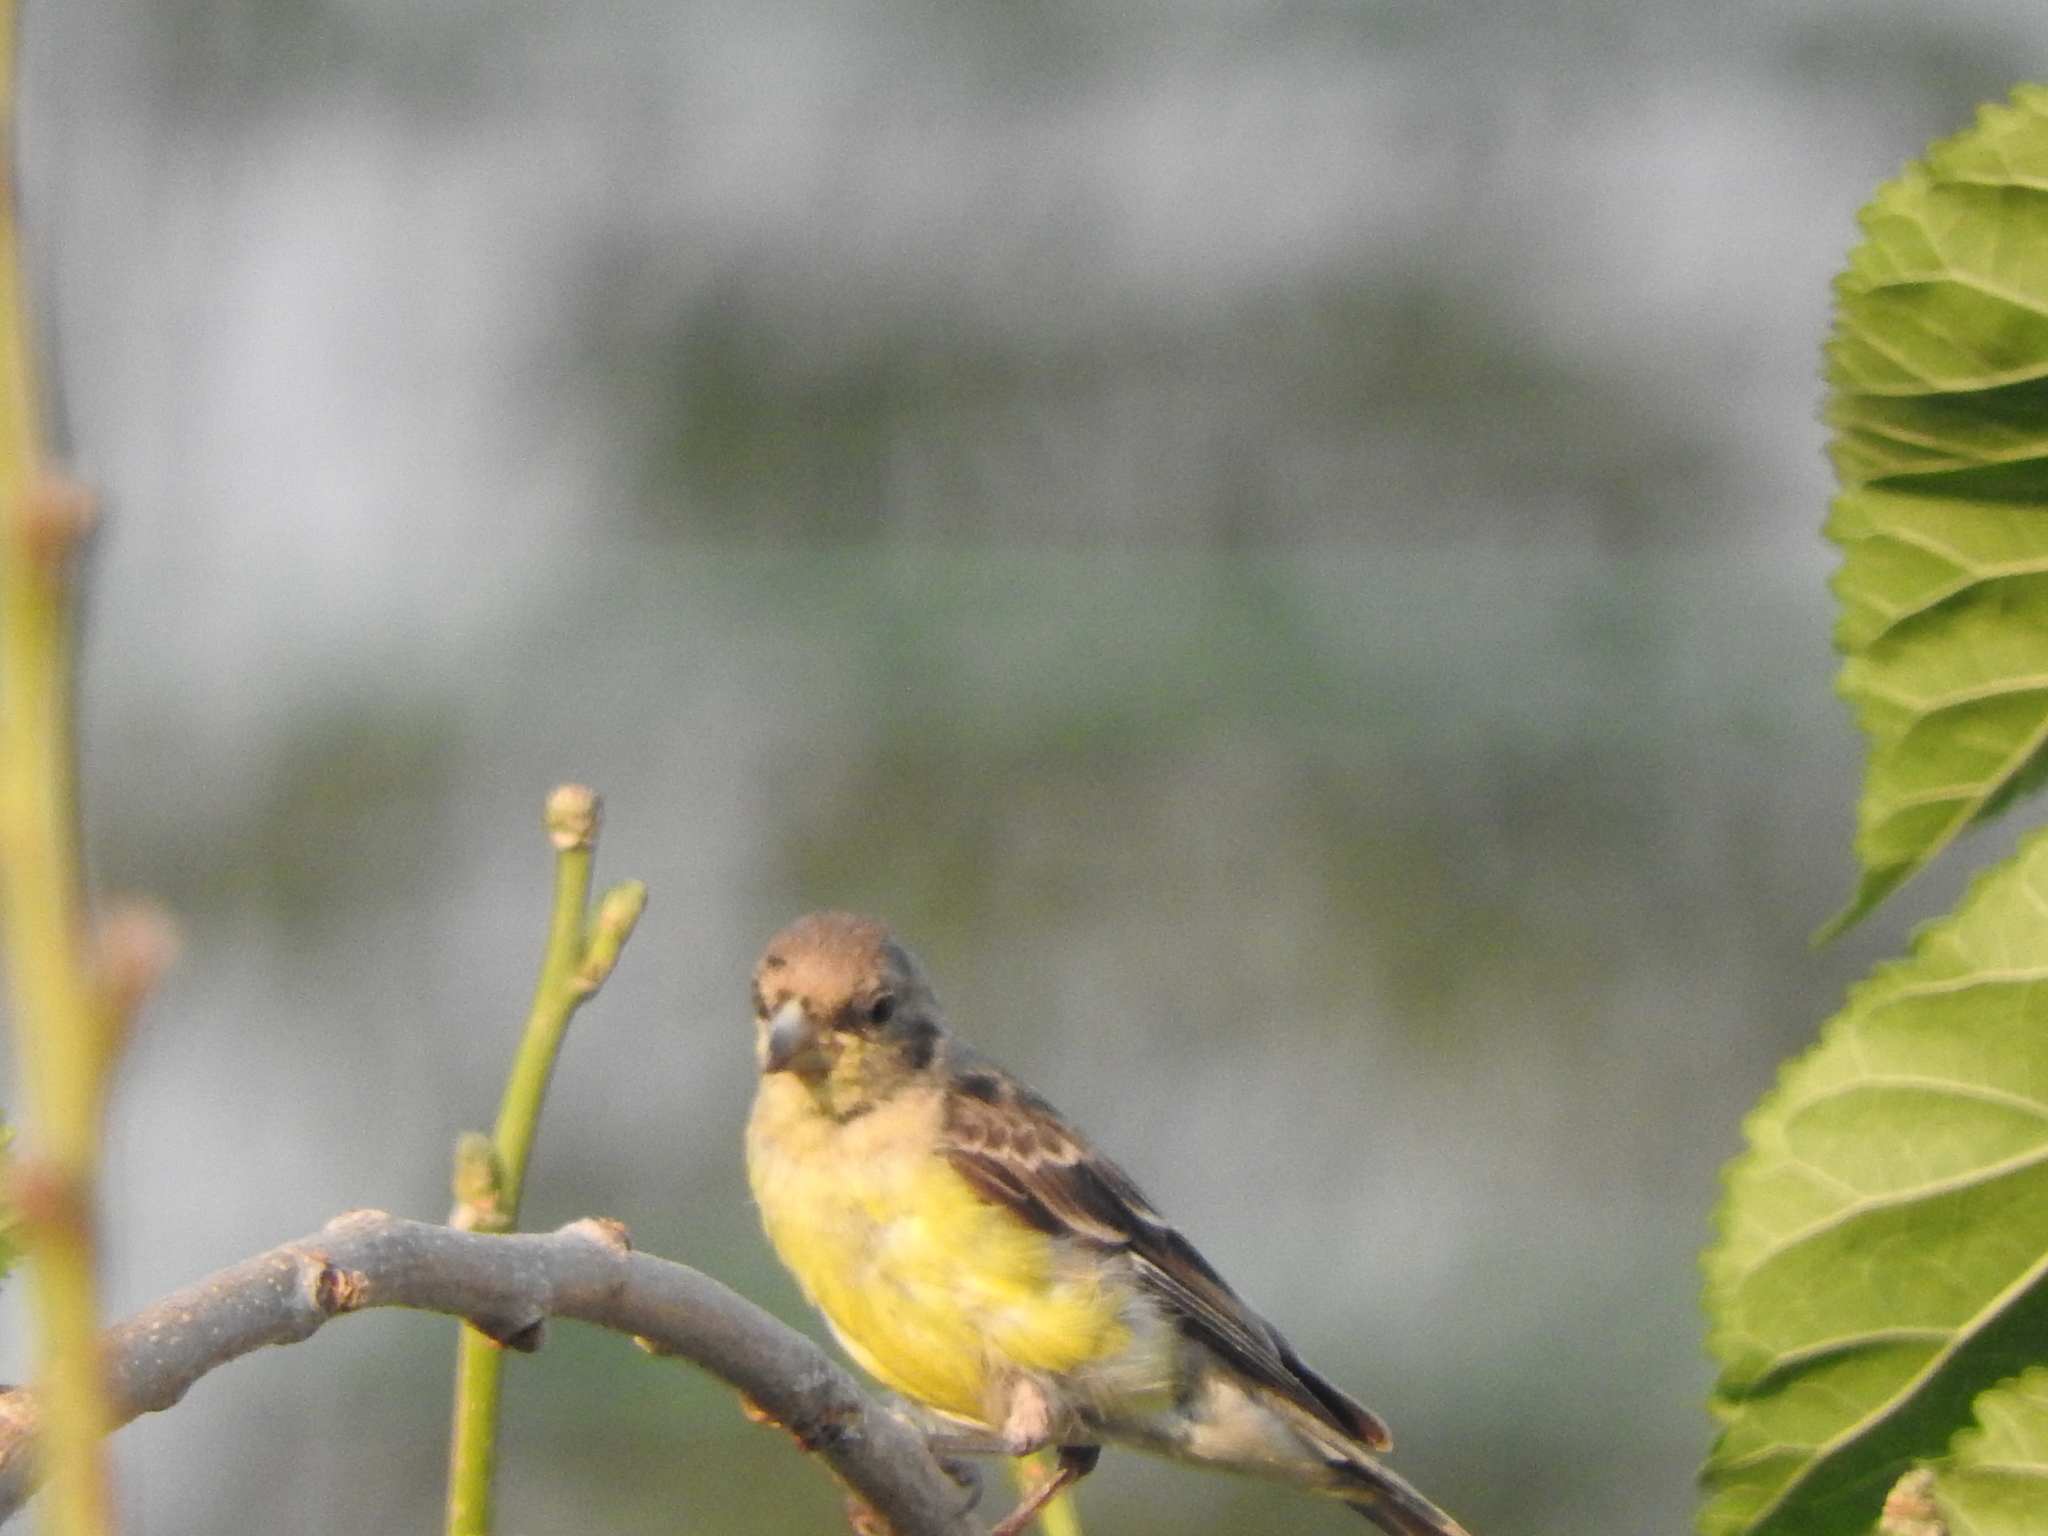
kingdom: Animalia
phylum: Chordata
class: Aves
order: Passeriformes
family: Fringillidae
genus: Spinus
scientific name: Spinus psaltria
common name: Lesser goldfinch
